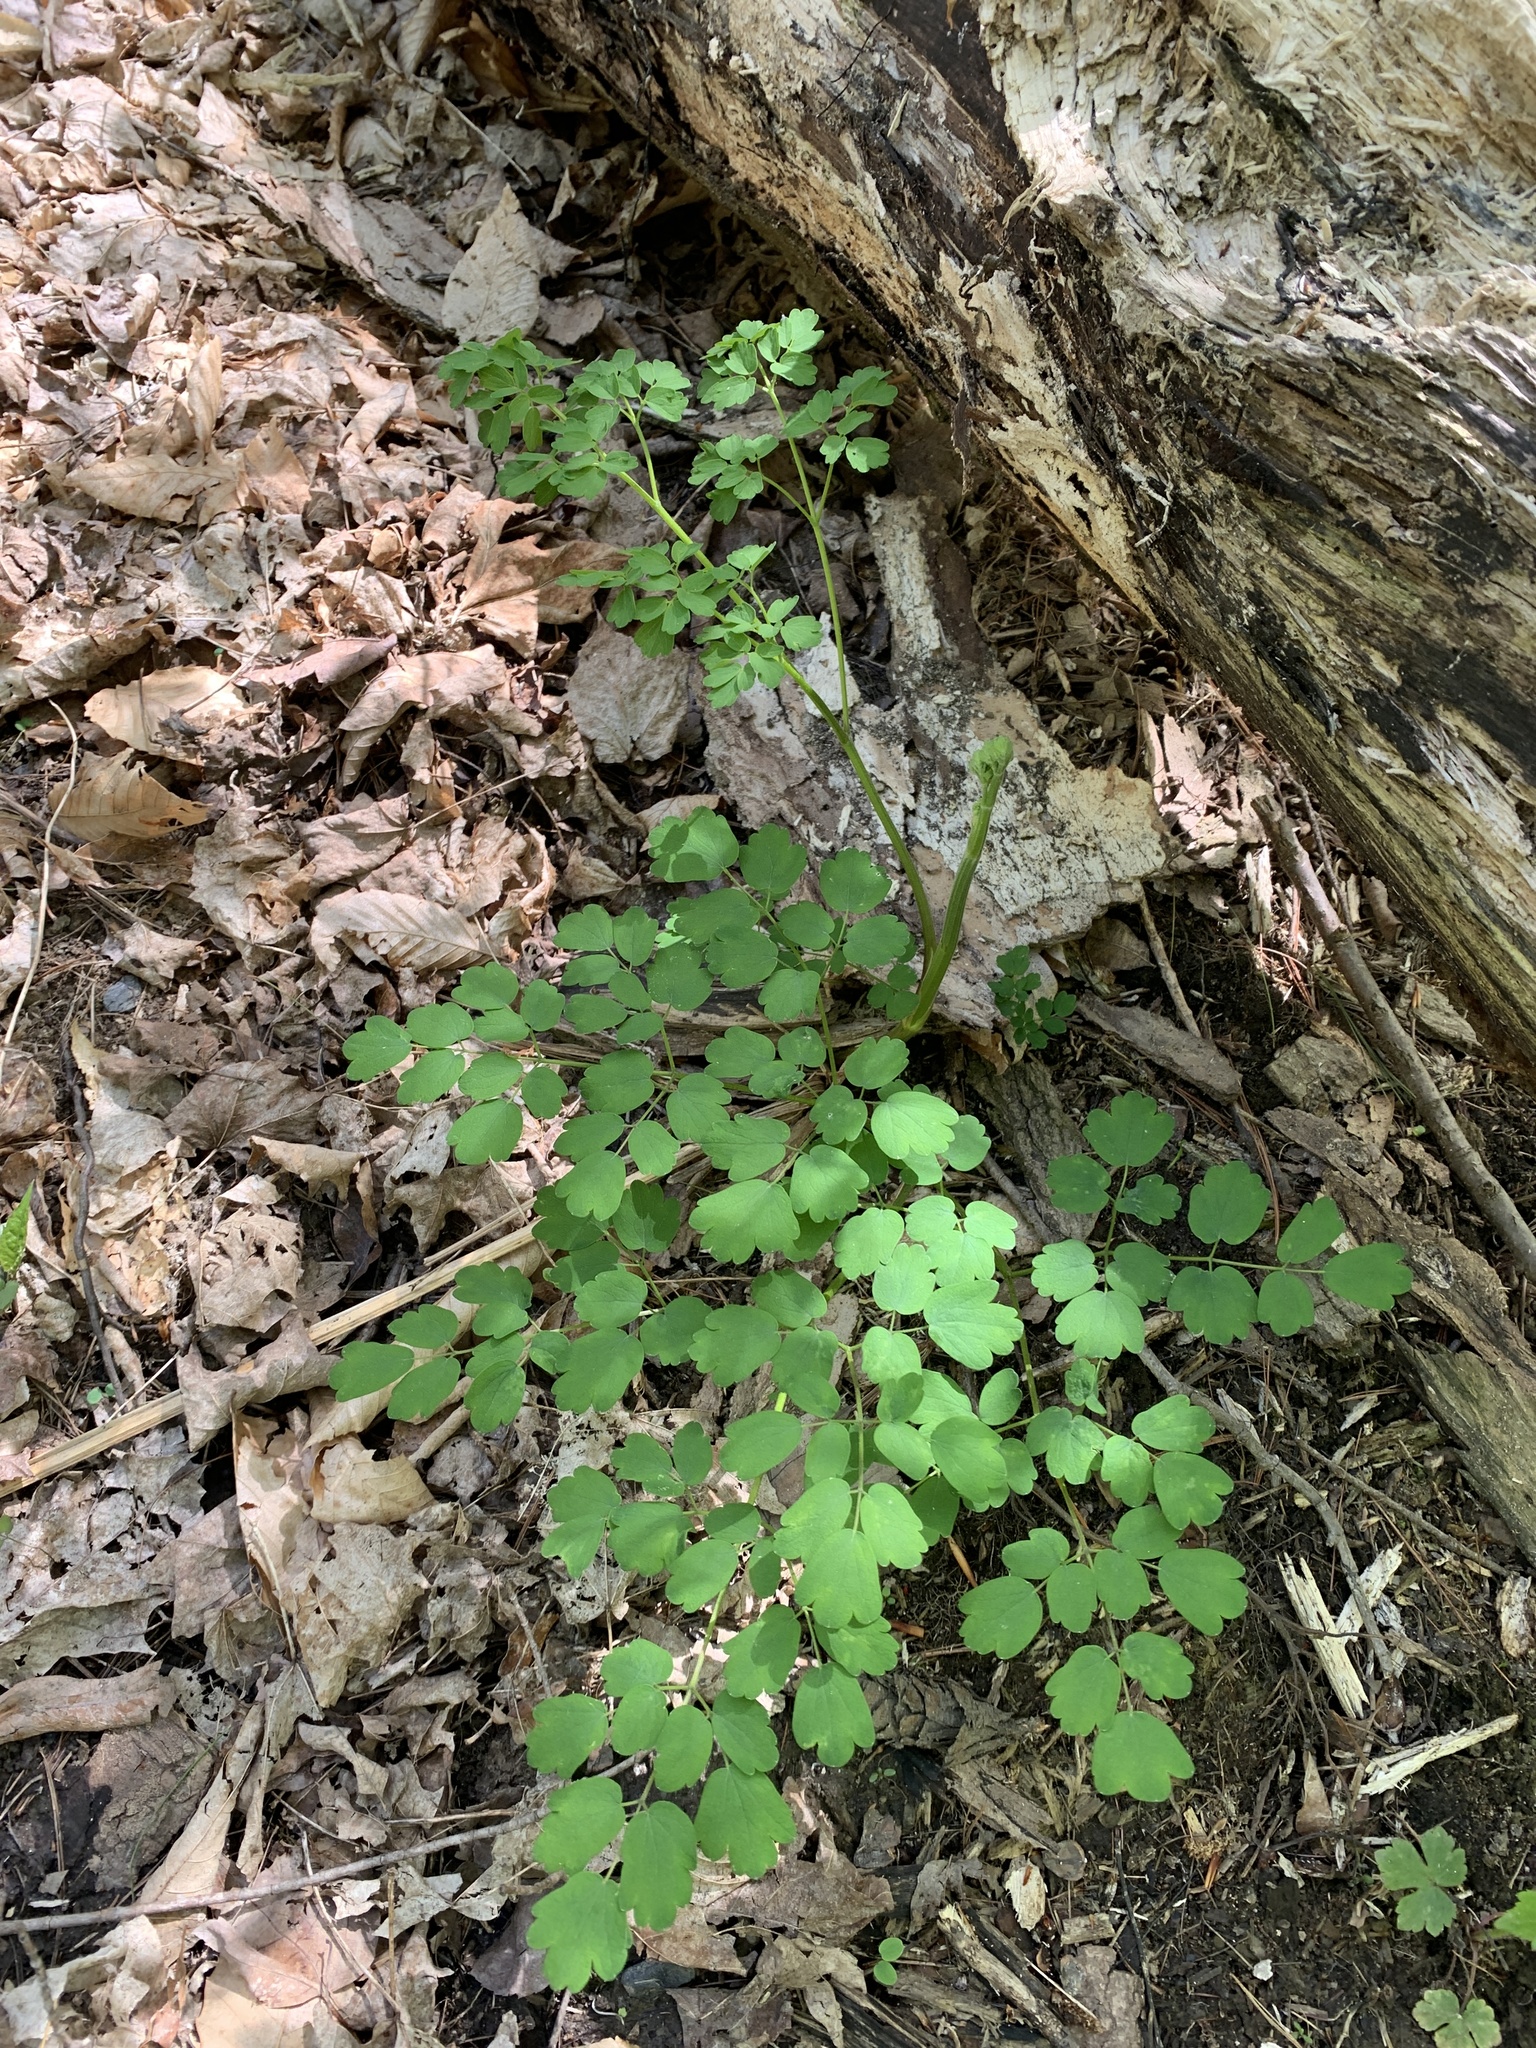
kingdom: Plantae
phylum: Tracheophyta
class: Magnoliopsida
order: Ranunculales
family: Ranunculaceae
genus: Thalictrum
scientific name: Thalictrum pubescens
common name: King-of-the-meadow
